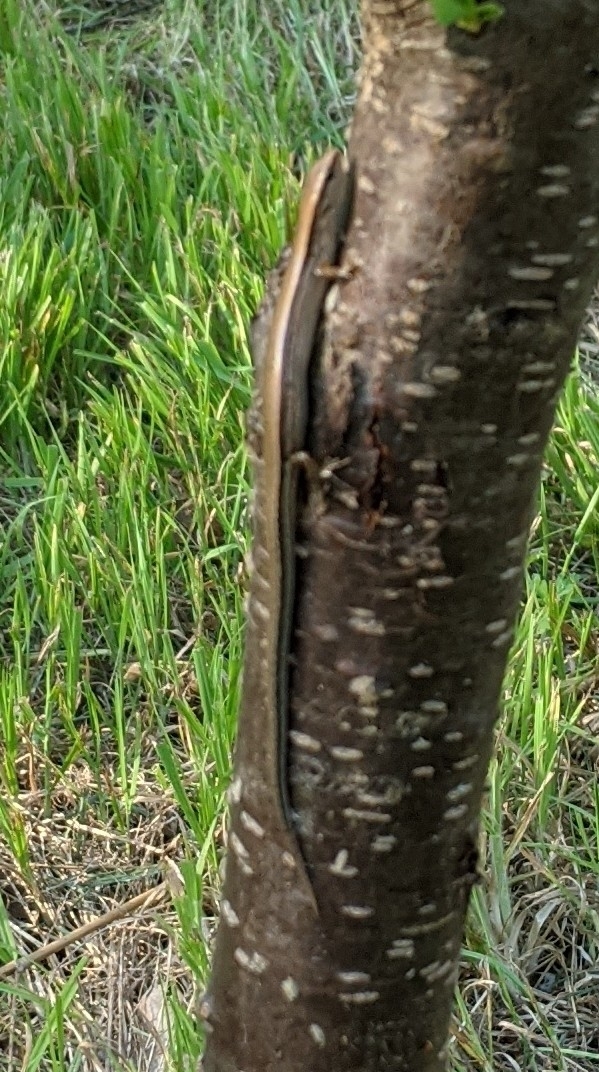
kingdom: Animalia
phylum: Chordata
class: Squamata
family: Scincidae
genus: Scincella
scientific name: Scincella lateralis
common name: Ground skink
